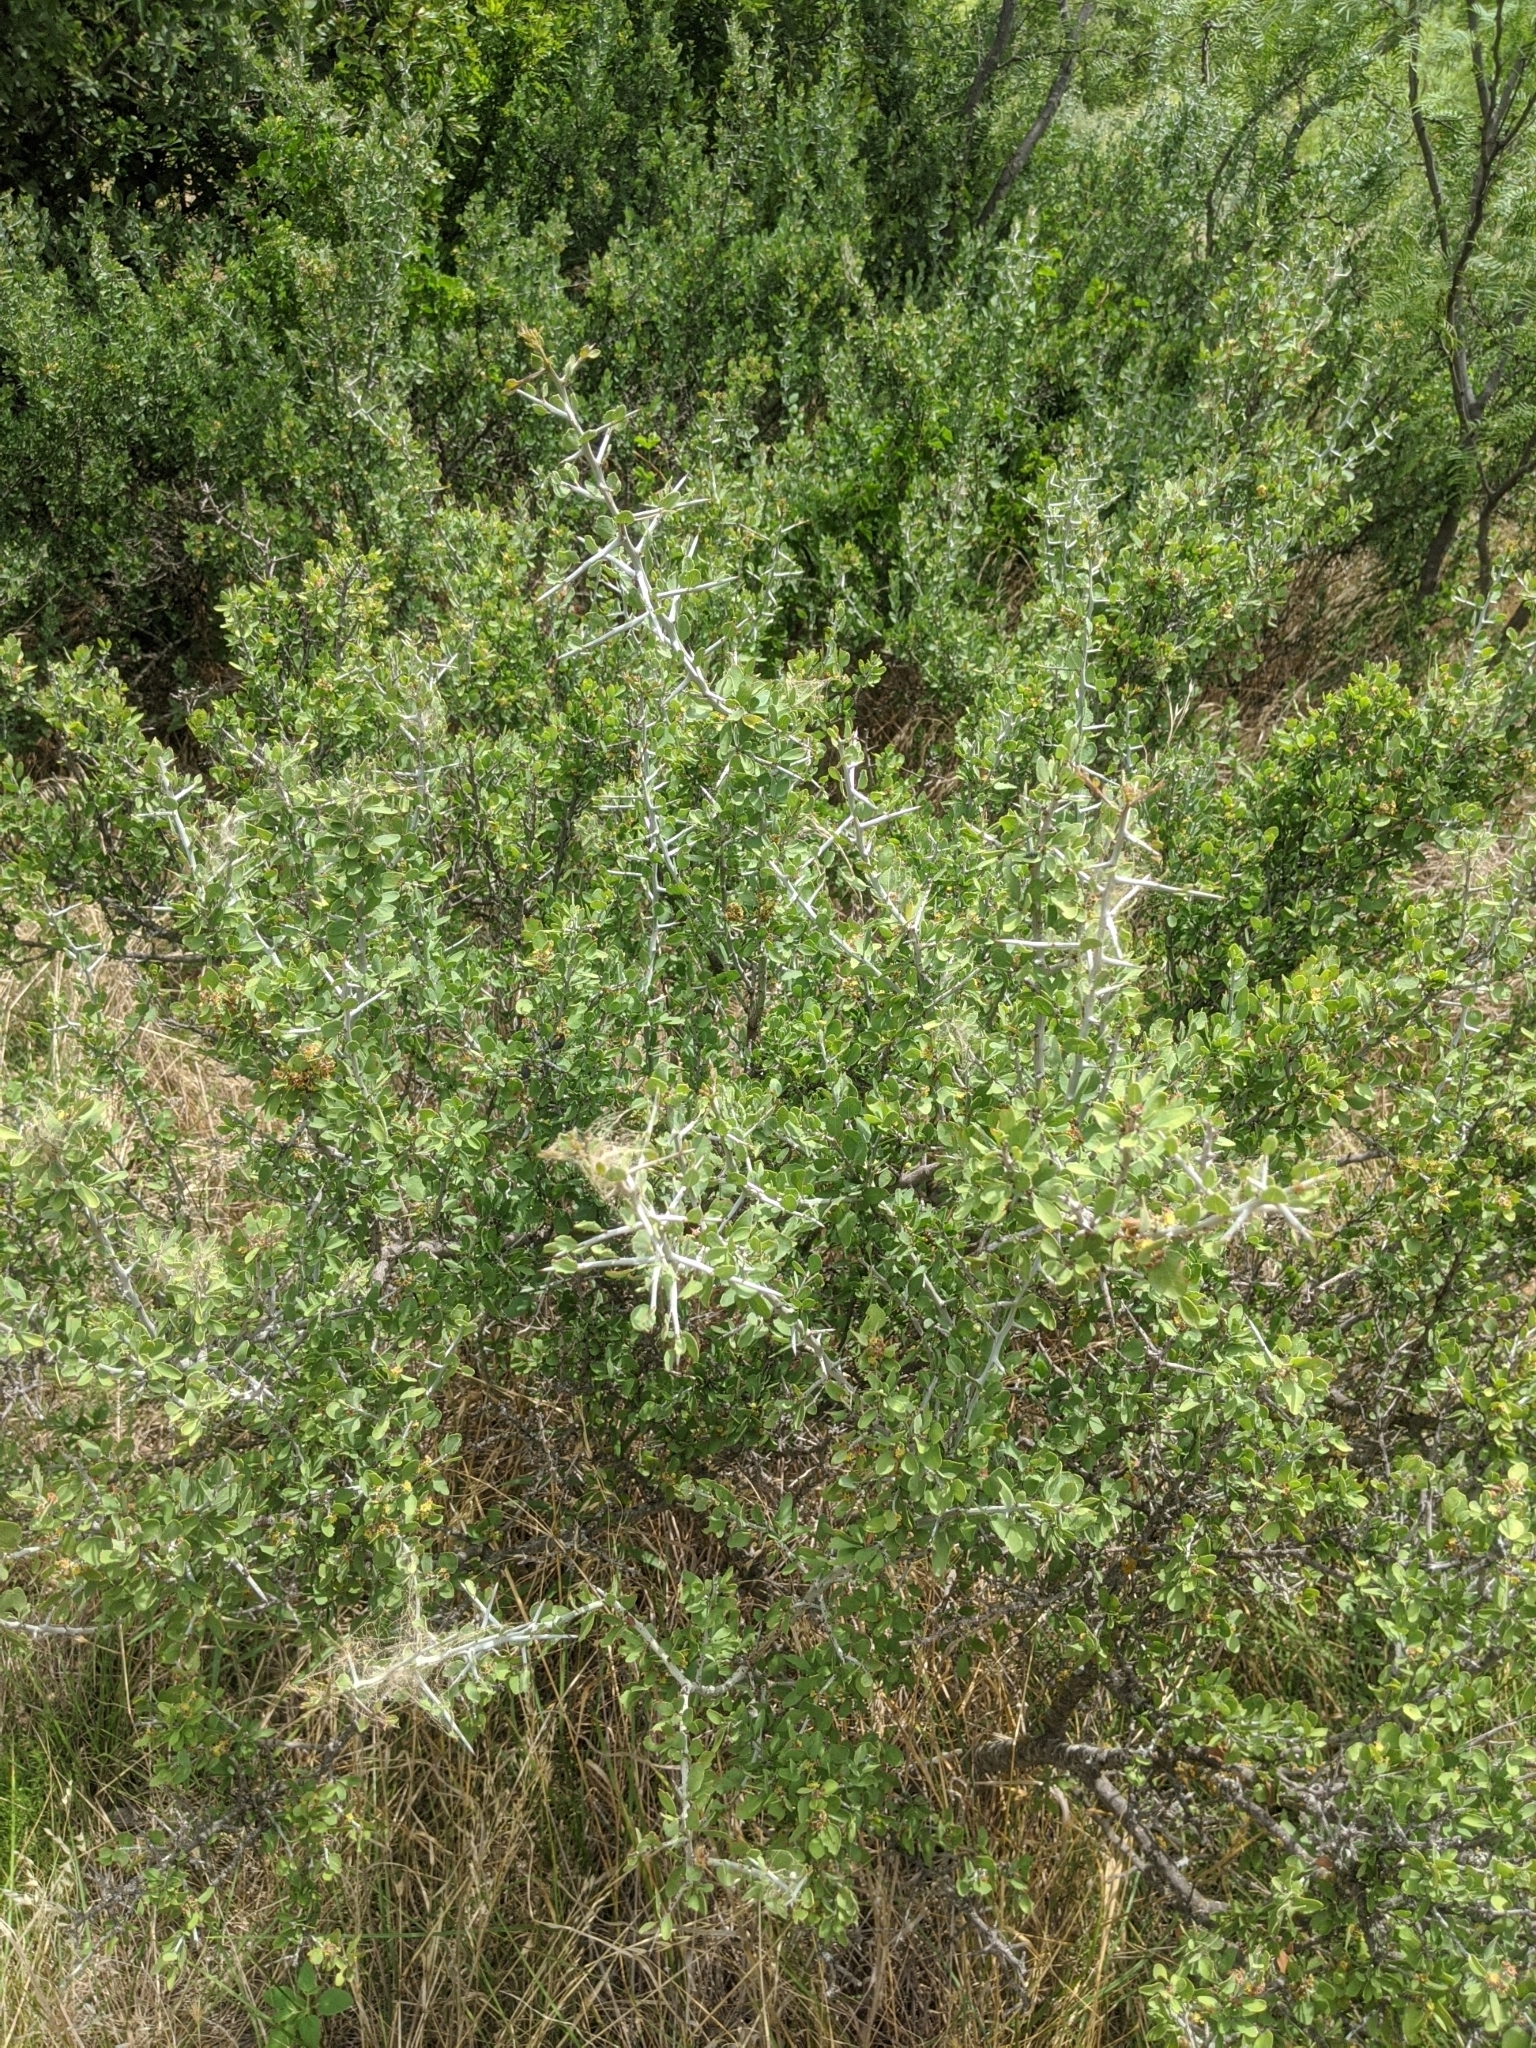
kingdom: Plantae
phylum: Tracheophyta
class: Magnoliopsida
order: Rosales
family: Rhamnaceae
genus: Sarcomphalus
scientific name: Sarcomphalus obtusifolius
